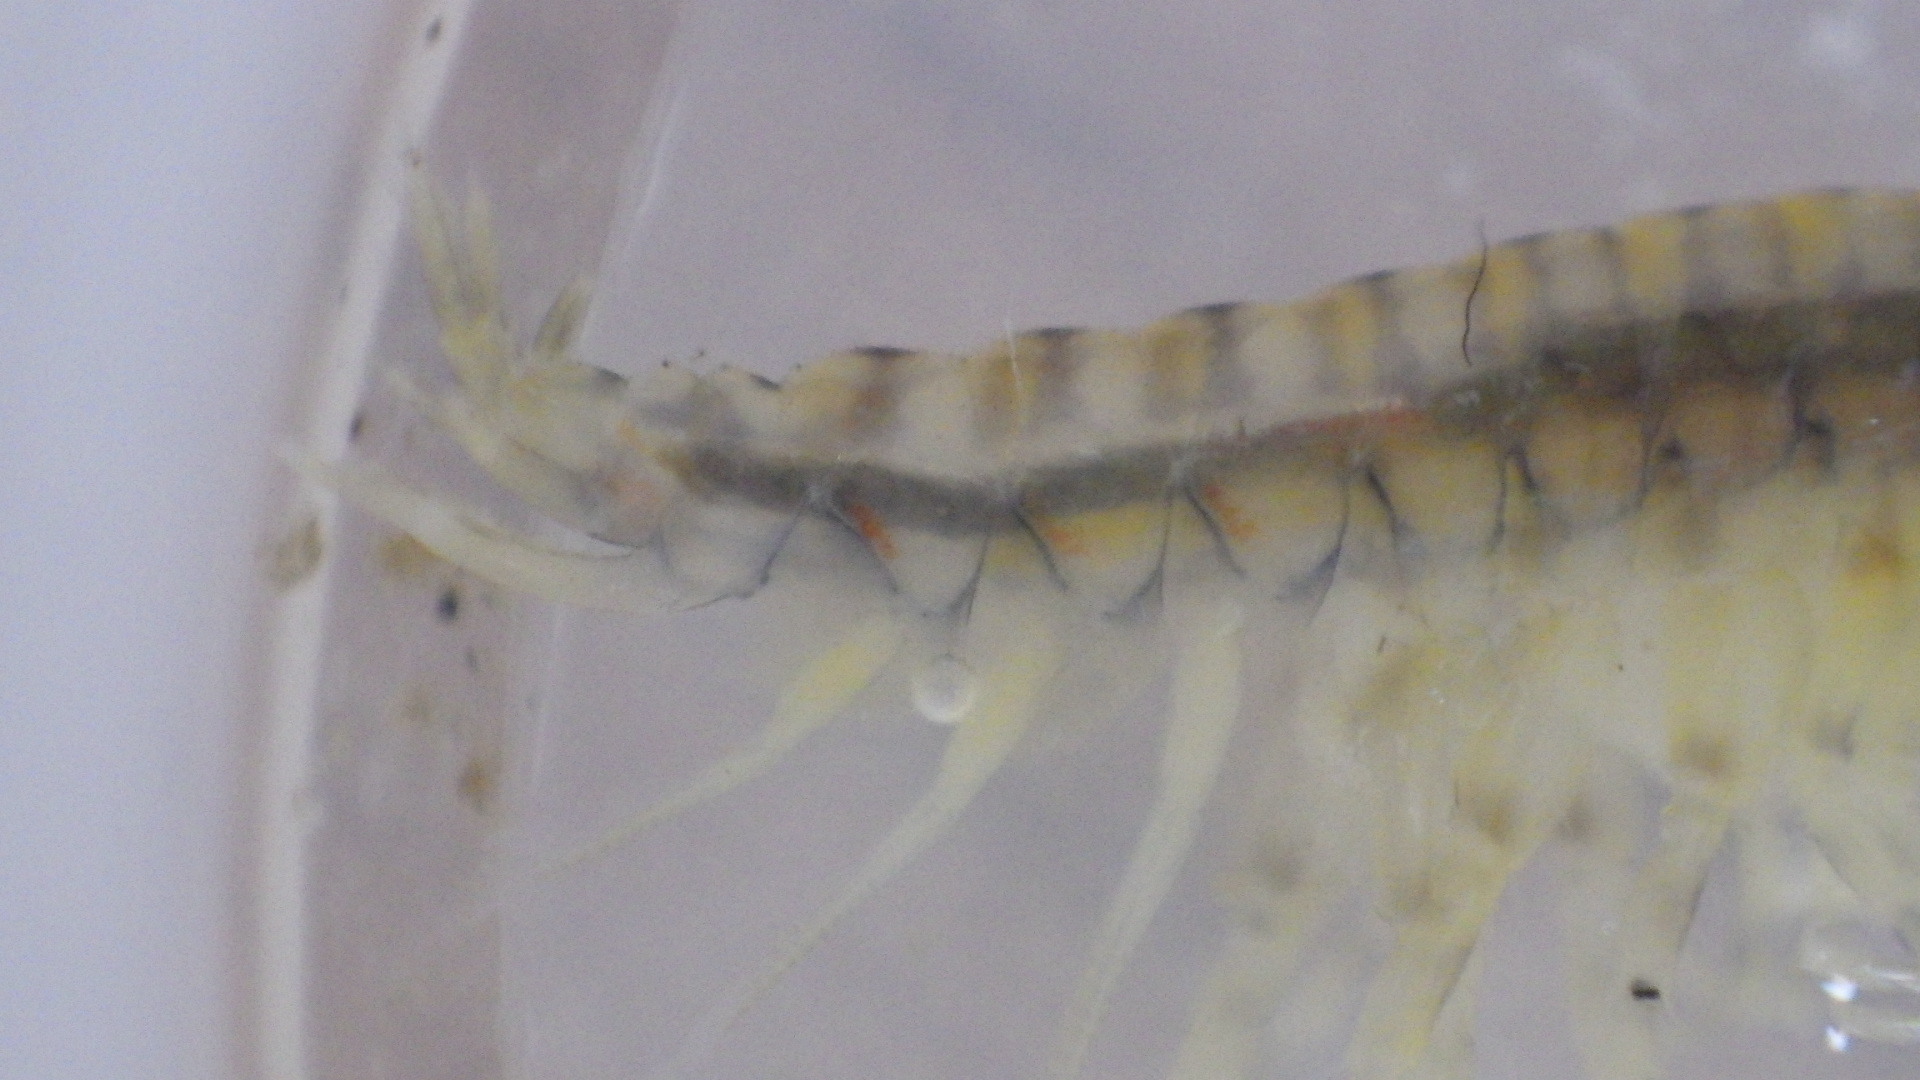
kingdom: Animalia
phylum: Arthropoda
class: Malacostraca
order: Amphipoda
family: Gammaridae
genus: Gammarus
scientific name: Gammarus fasciatus
